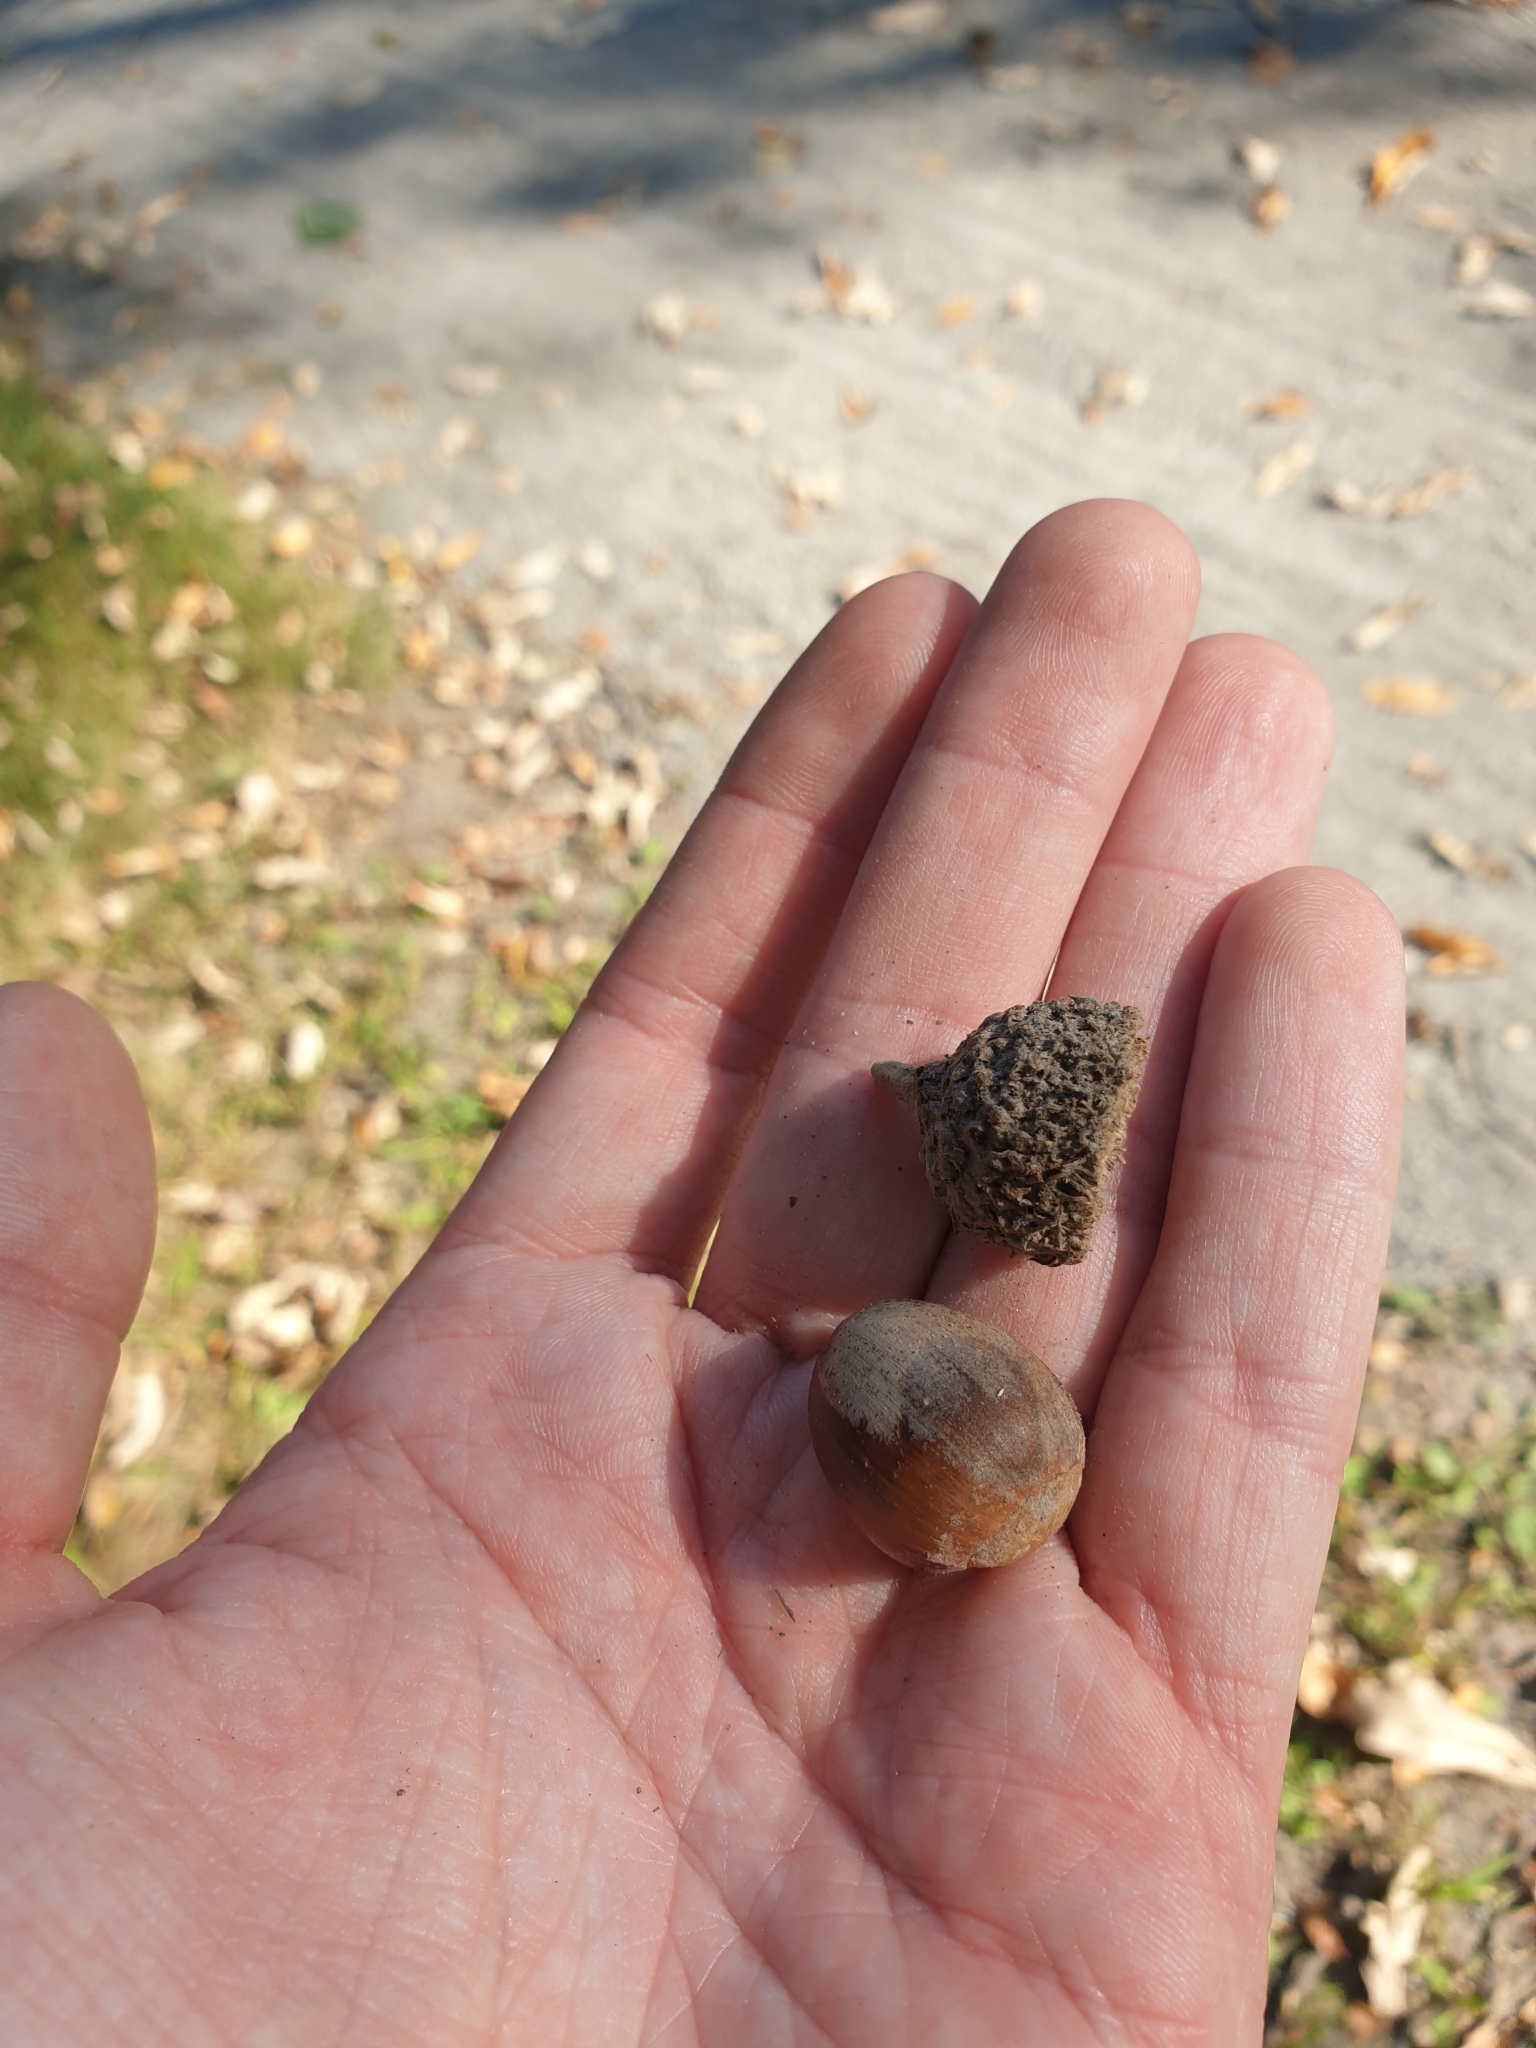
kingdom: Plantae
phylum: Tracheophyta
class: Magnoliopsida
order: Fagales
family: Fagaceae
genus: Quercus
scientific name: Quercus bicolor
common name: Swamp white oak
